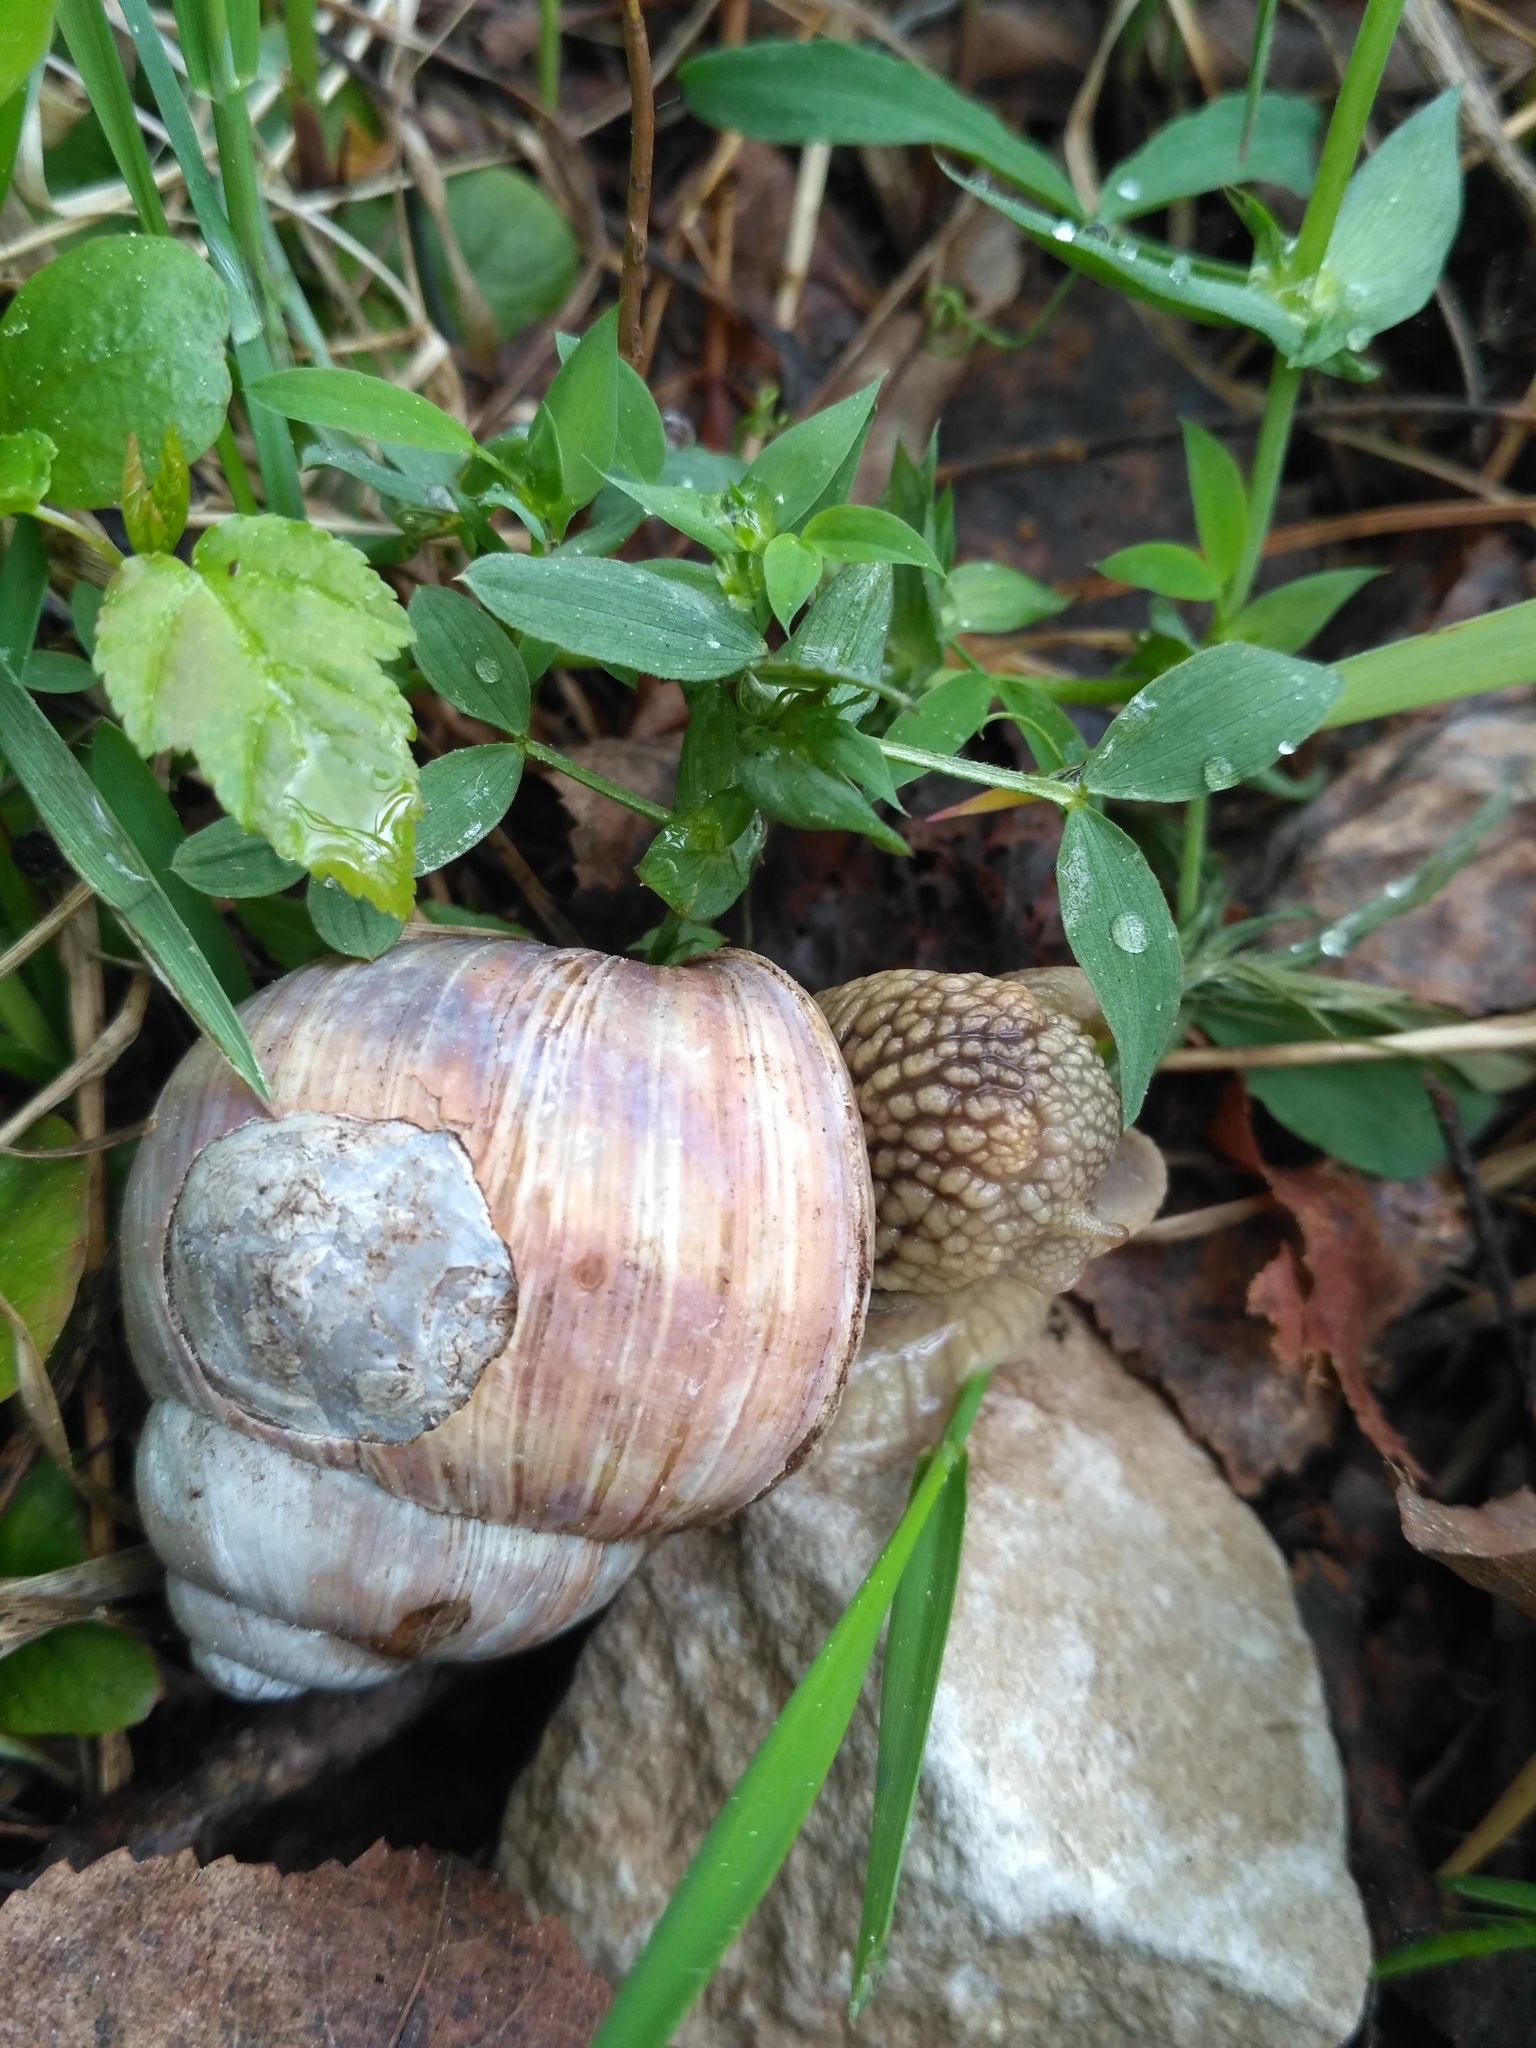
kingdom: Animalia
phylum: Mollusca
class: Gastropoda
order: Stylommatophora
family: Helicidae
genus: Helix
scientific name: Helix pomatia
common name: Roman snail
